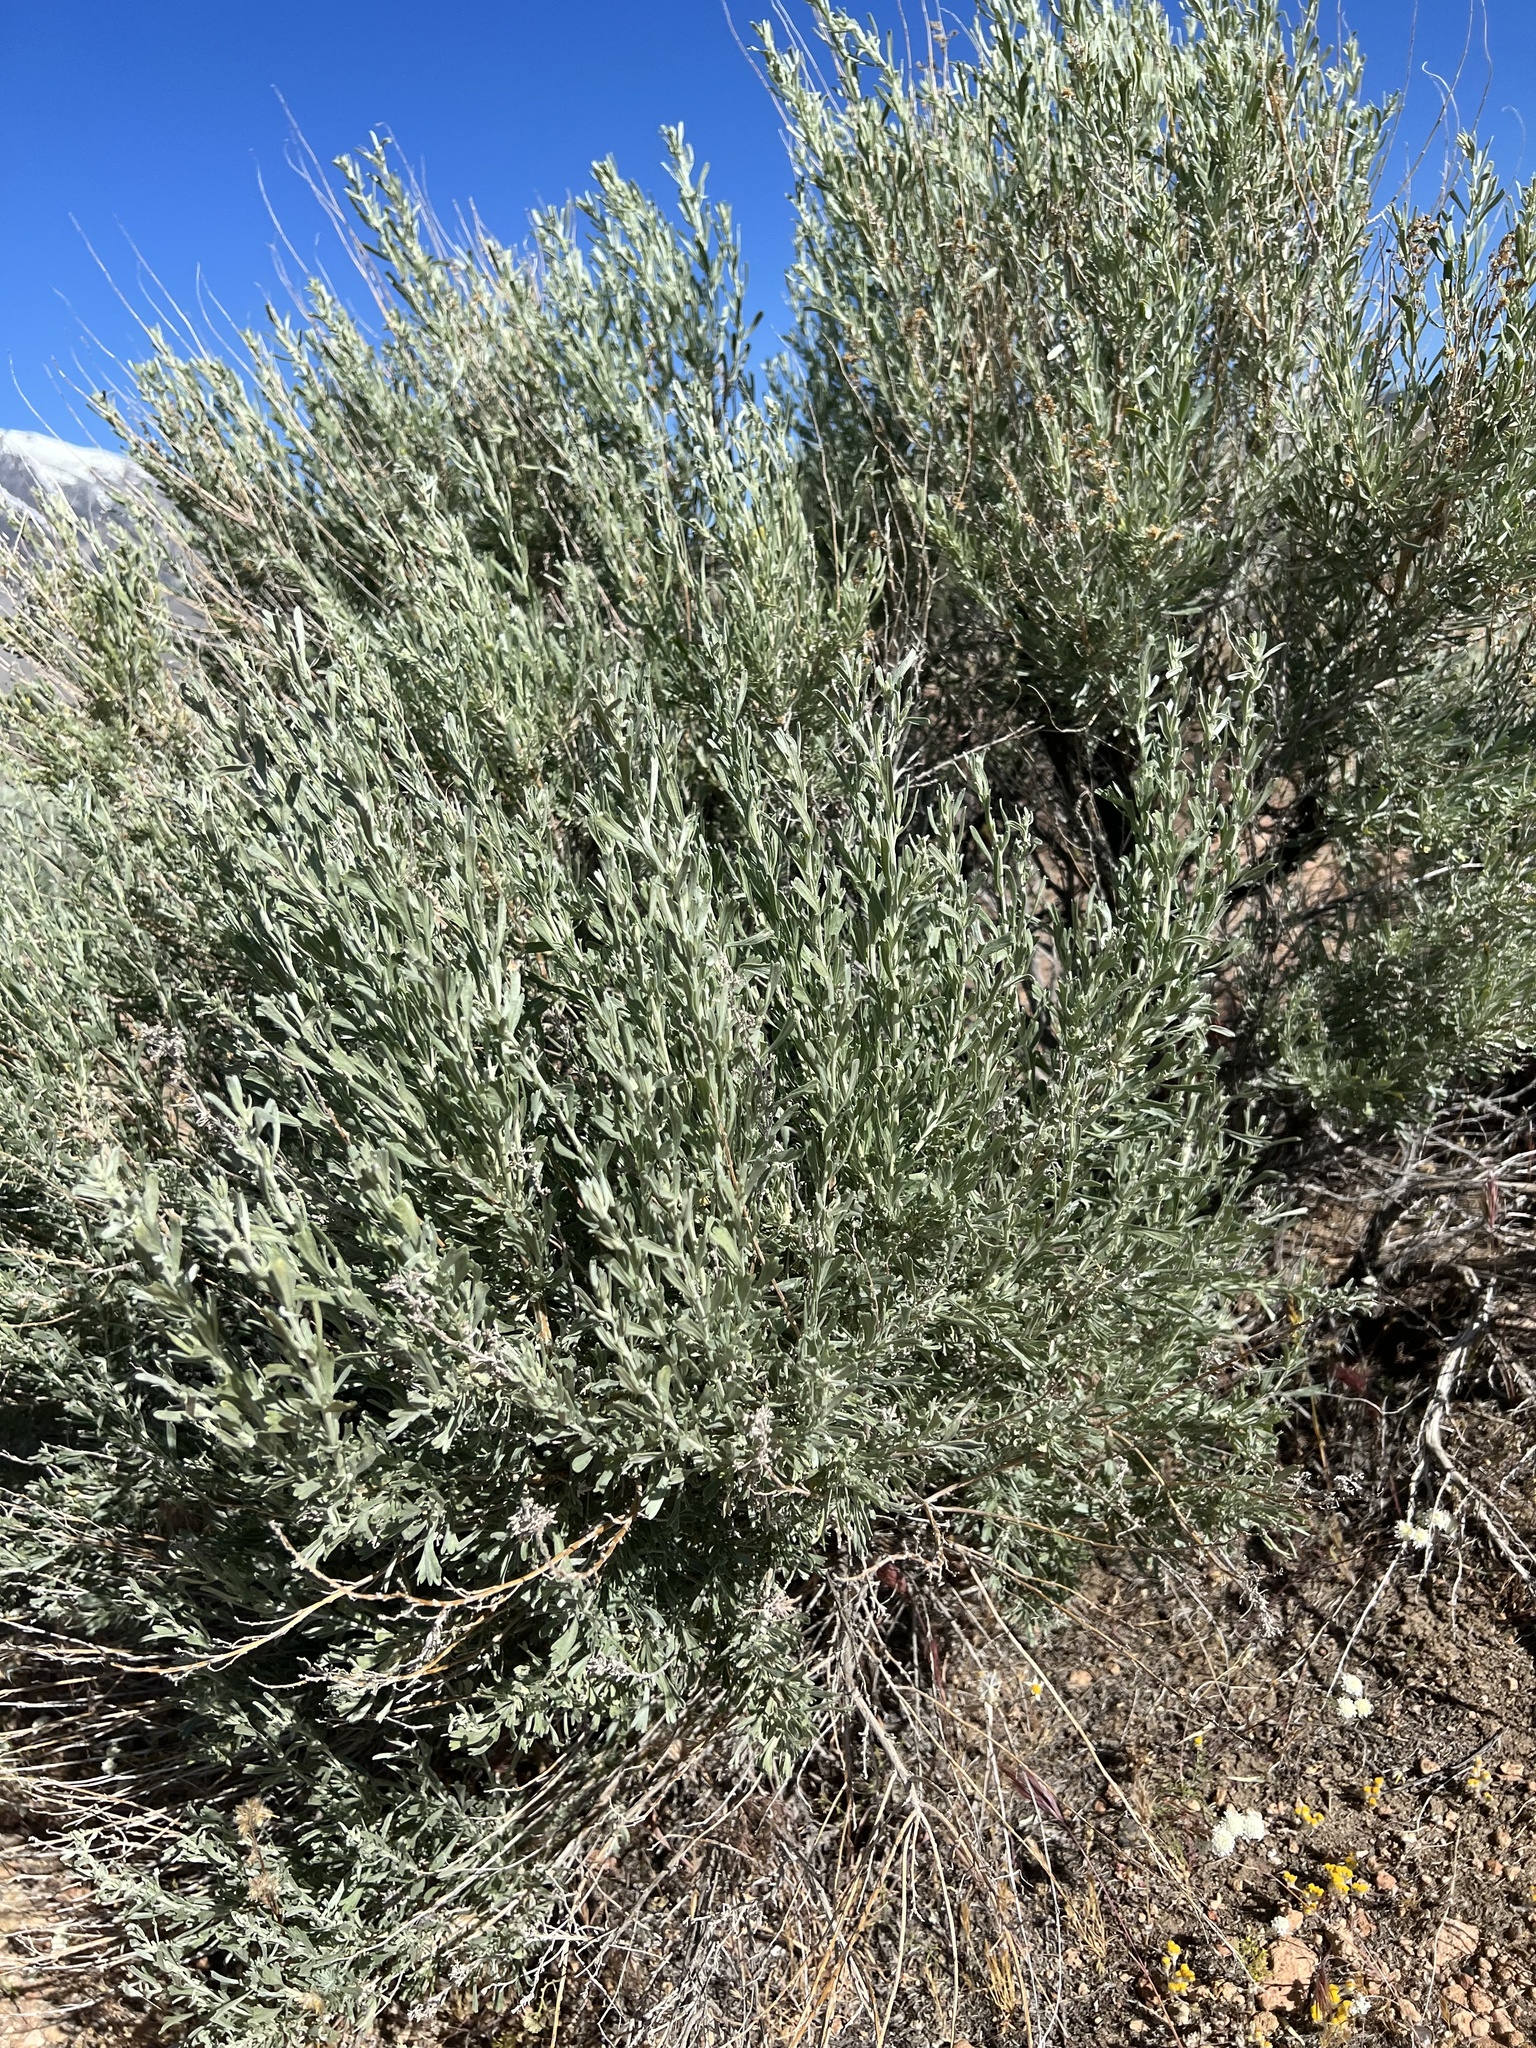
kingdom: Plantae
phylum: Tracheophyta
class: Magnoliopsida
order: Asterales
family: Asteraceae
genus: Artemisia
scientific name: Artemisia tridentata
